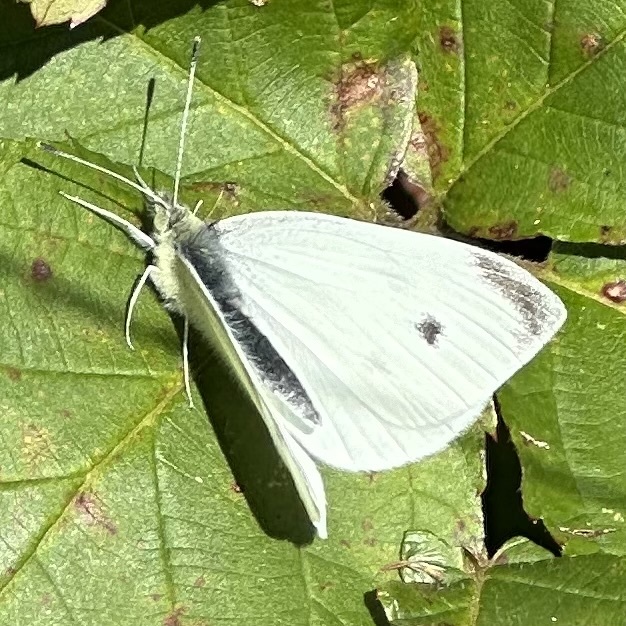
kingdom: Animalia
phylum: Arthropoda
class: Insecta
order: Lepidoptera
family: Pieridae
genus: Pieris
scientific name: Pieris rapae
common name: Small white
